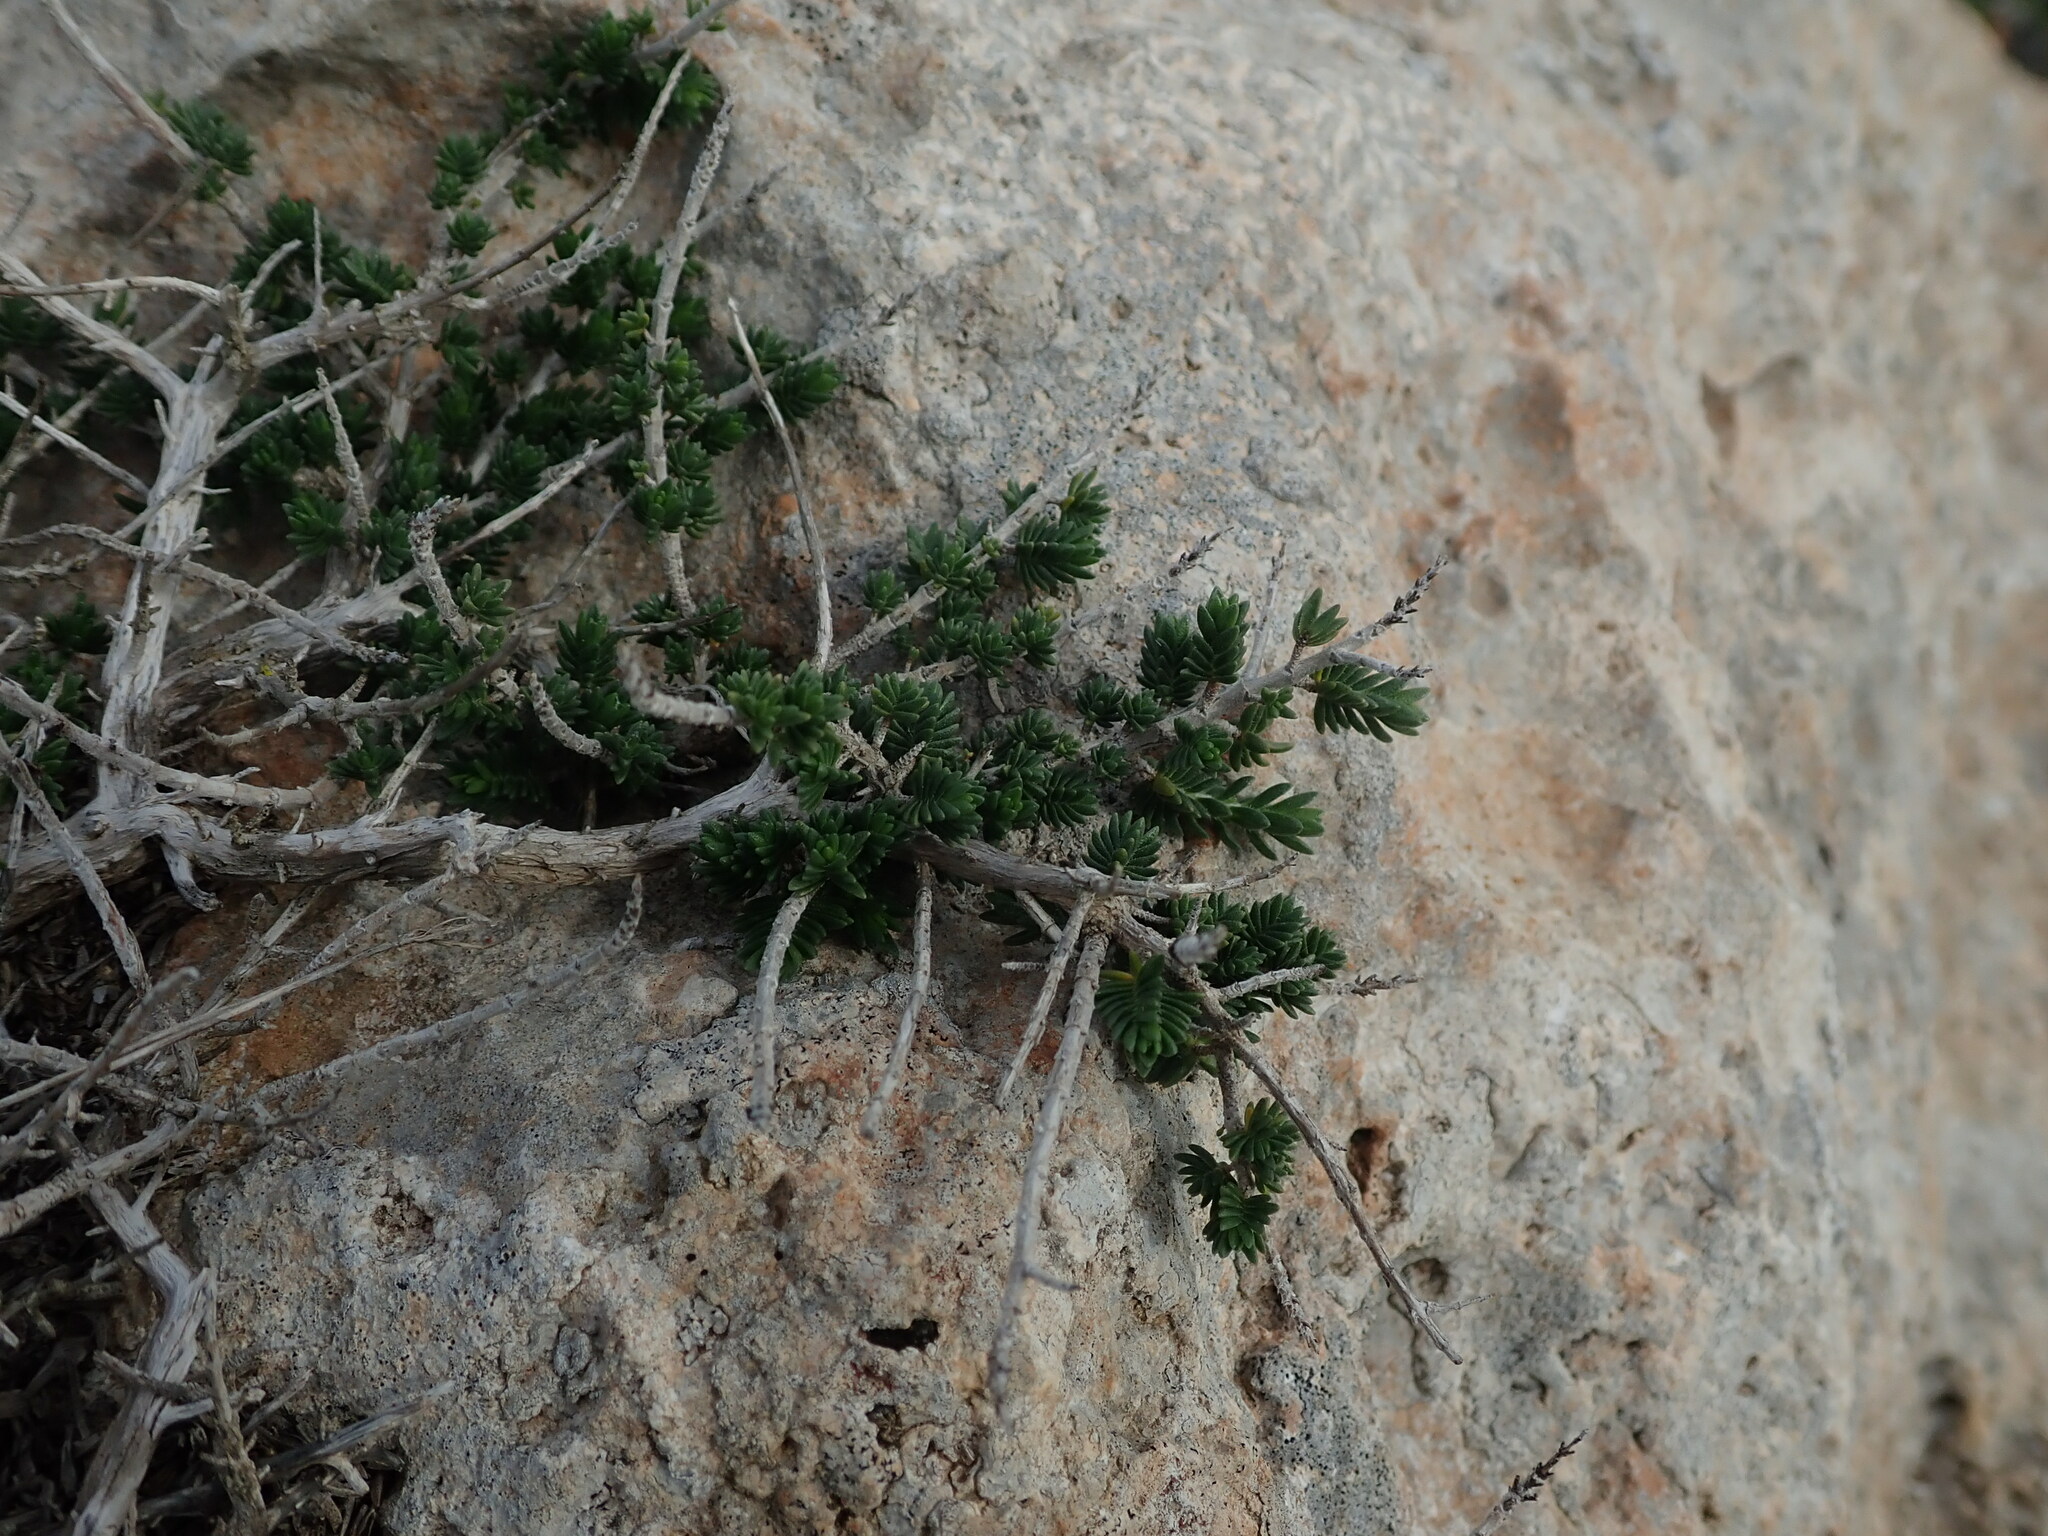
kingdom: Plantae
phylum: Tracheophyta
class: Magnoliopsida
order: Lamiales
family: Lamiaceae
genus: Thymbra
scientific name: Thymbra capitata
